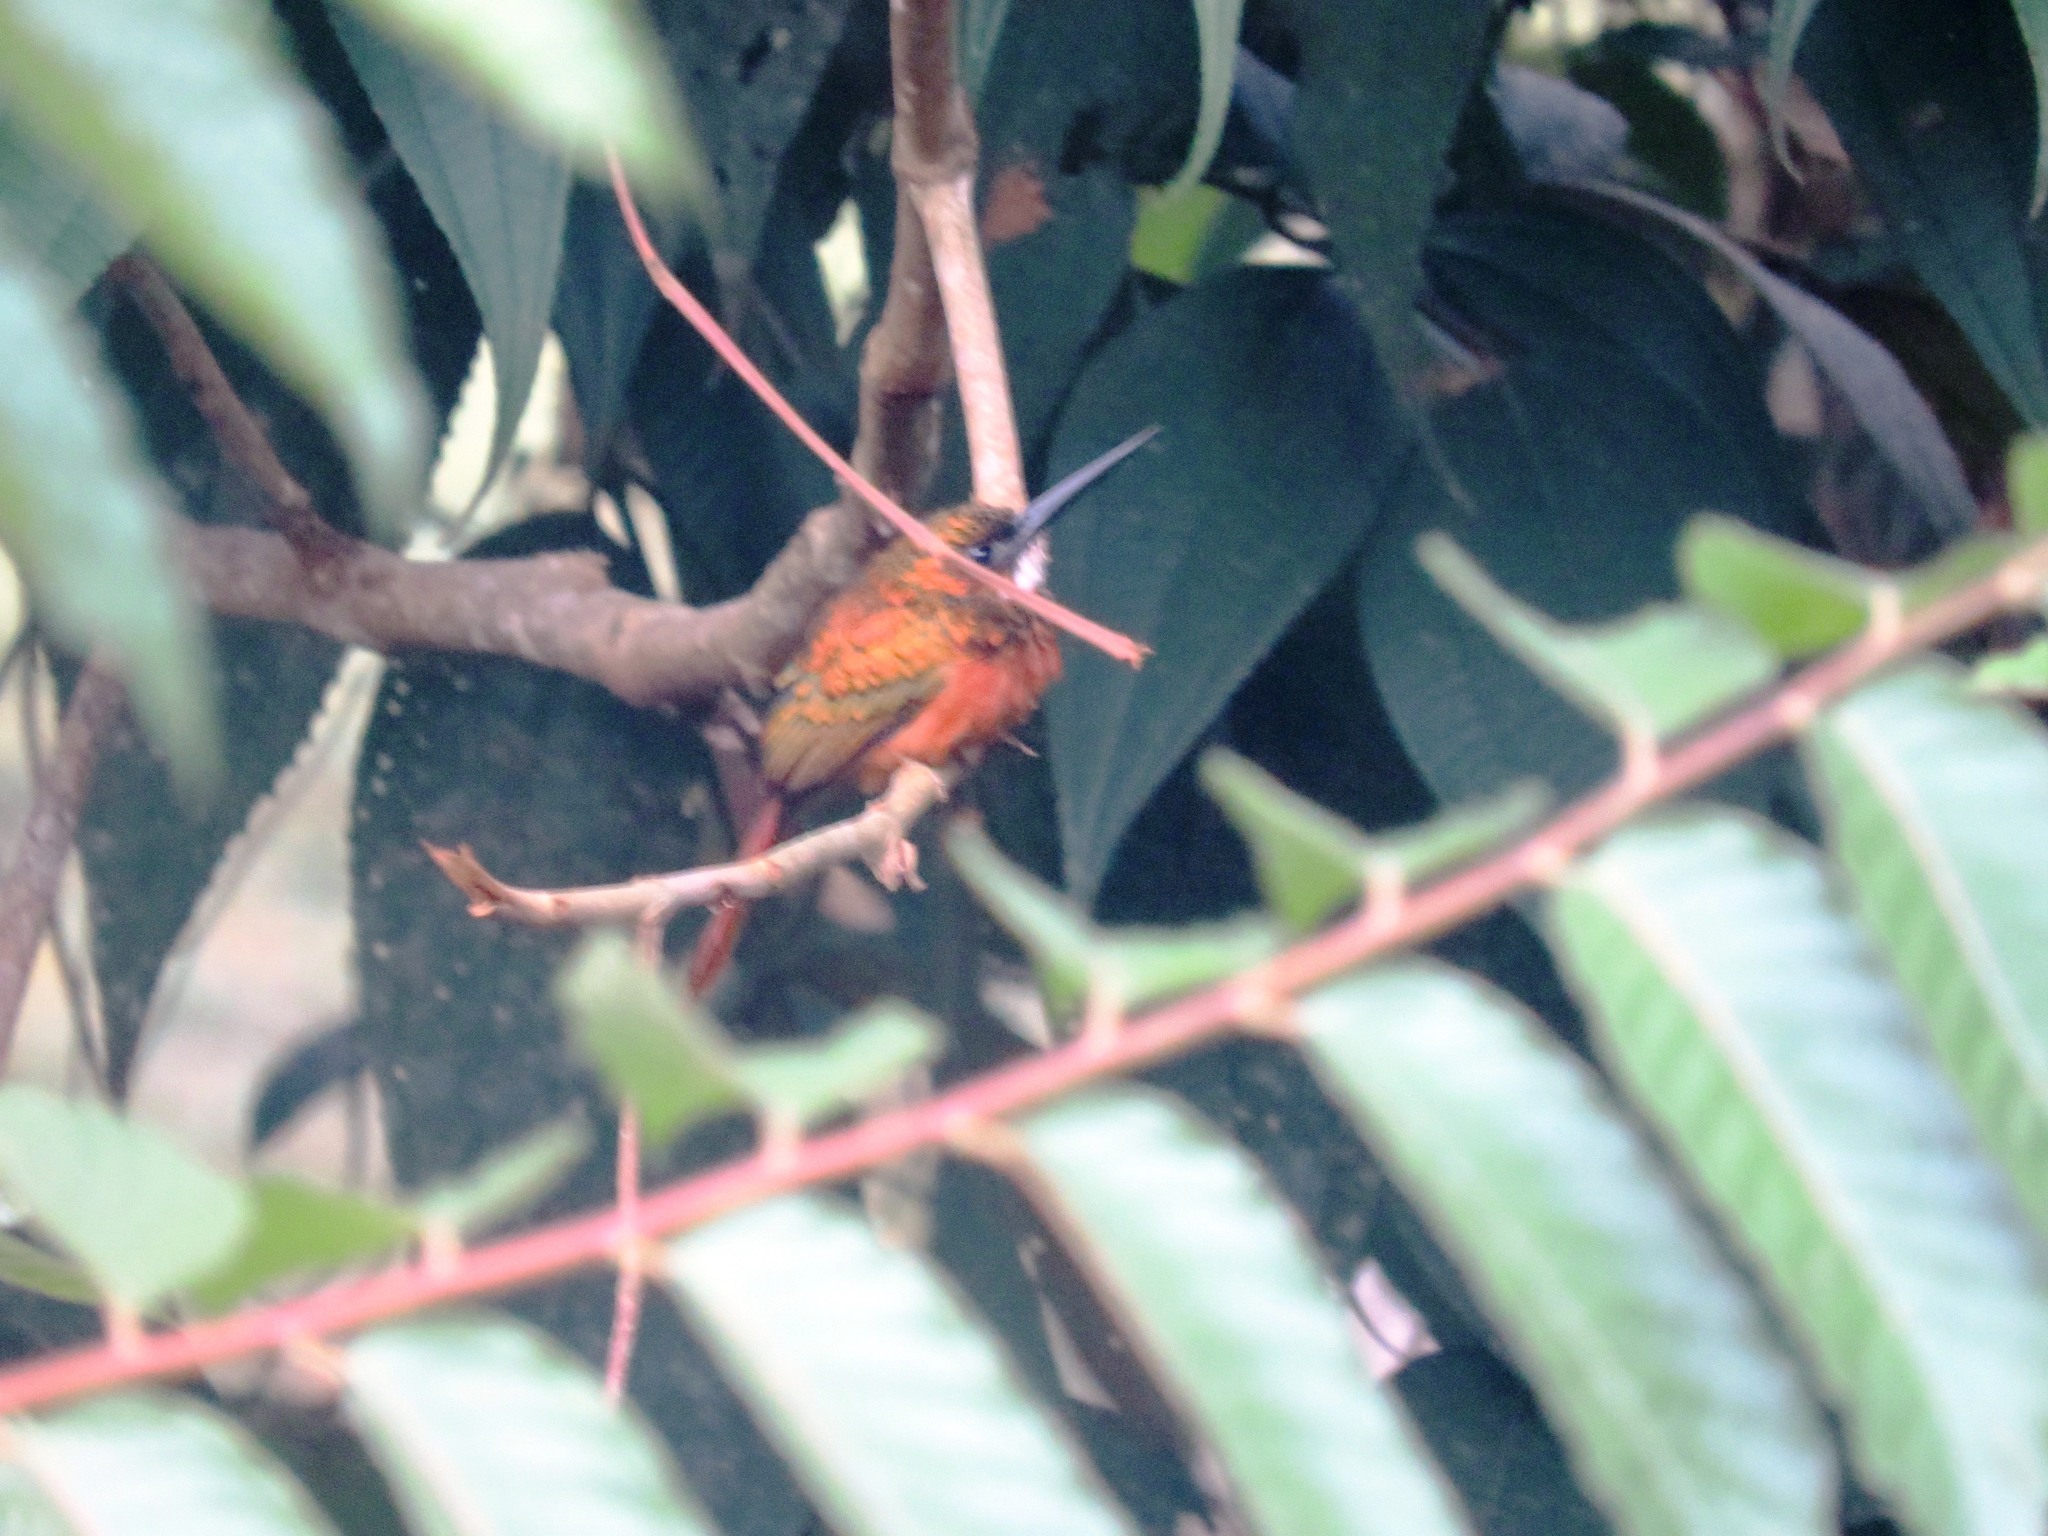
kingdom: Animalia
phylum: Chordata
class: Aves
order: Piciformes
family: Galbulidae
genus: Galbula
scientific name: Galbula ruficauda
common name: Rufous-tailed jacamar
